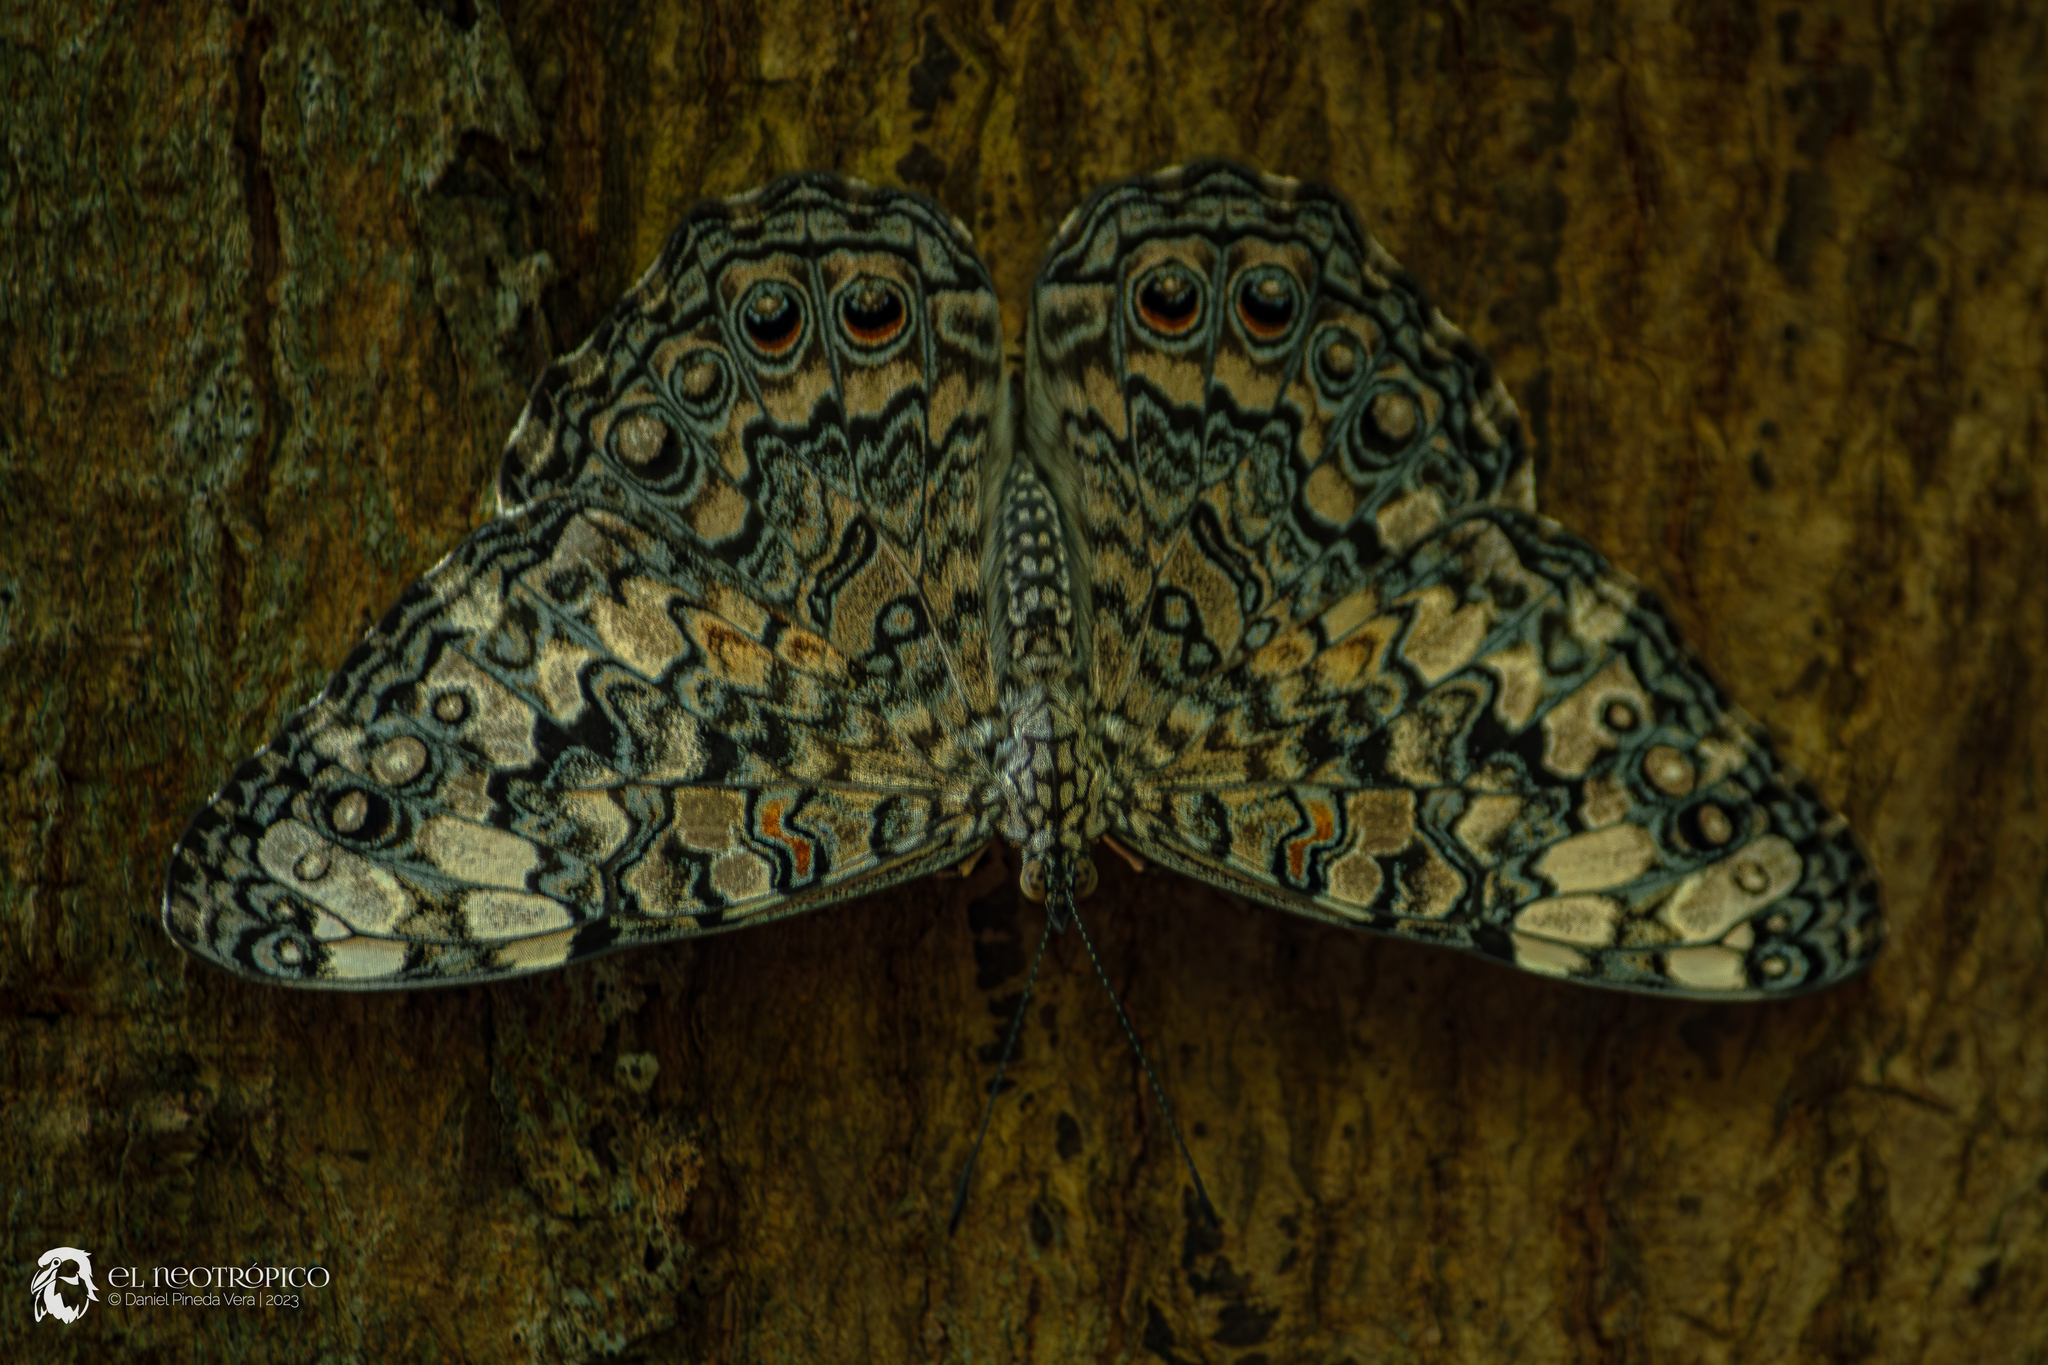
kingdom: Animalia
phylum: Arthropoda
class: Insecta
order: Lepidoptera
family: Nymphalidae
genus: Hamadryas
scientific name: Hamadryas februa
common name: Gray cracker
